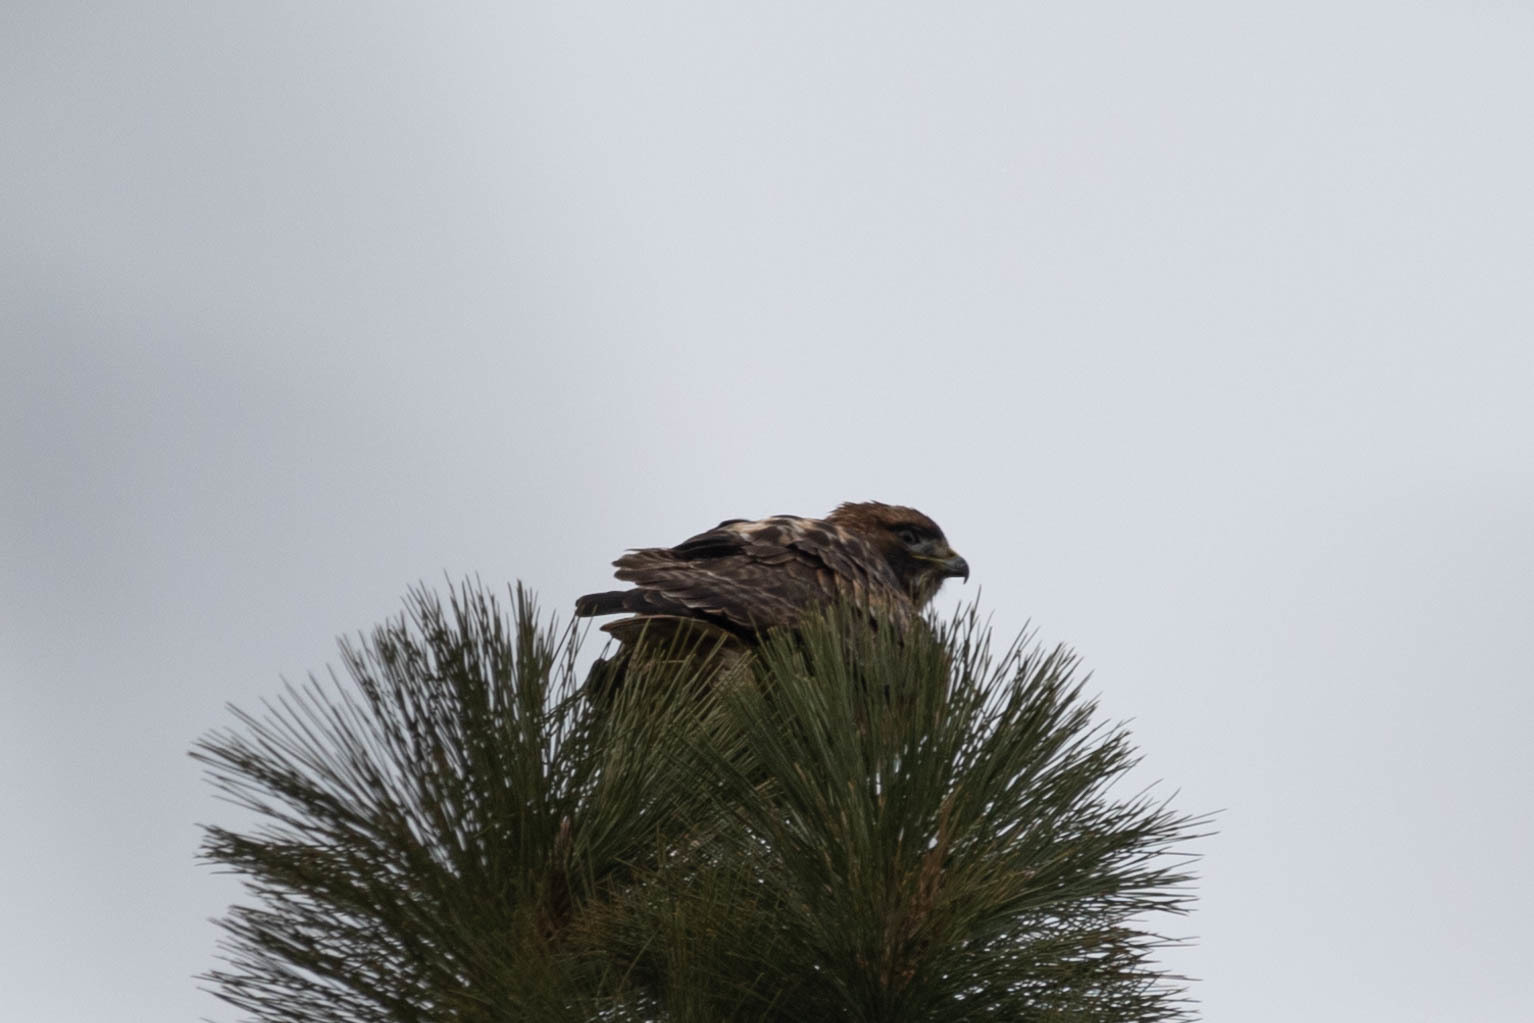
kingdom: Animalia
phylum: Chordata
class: Aves
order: Accipitriformes
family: Accipitridae
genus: Buteo
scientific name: Buteo jamaicensis
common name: Red-tailed hawk
